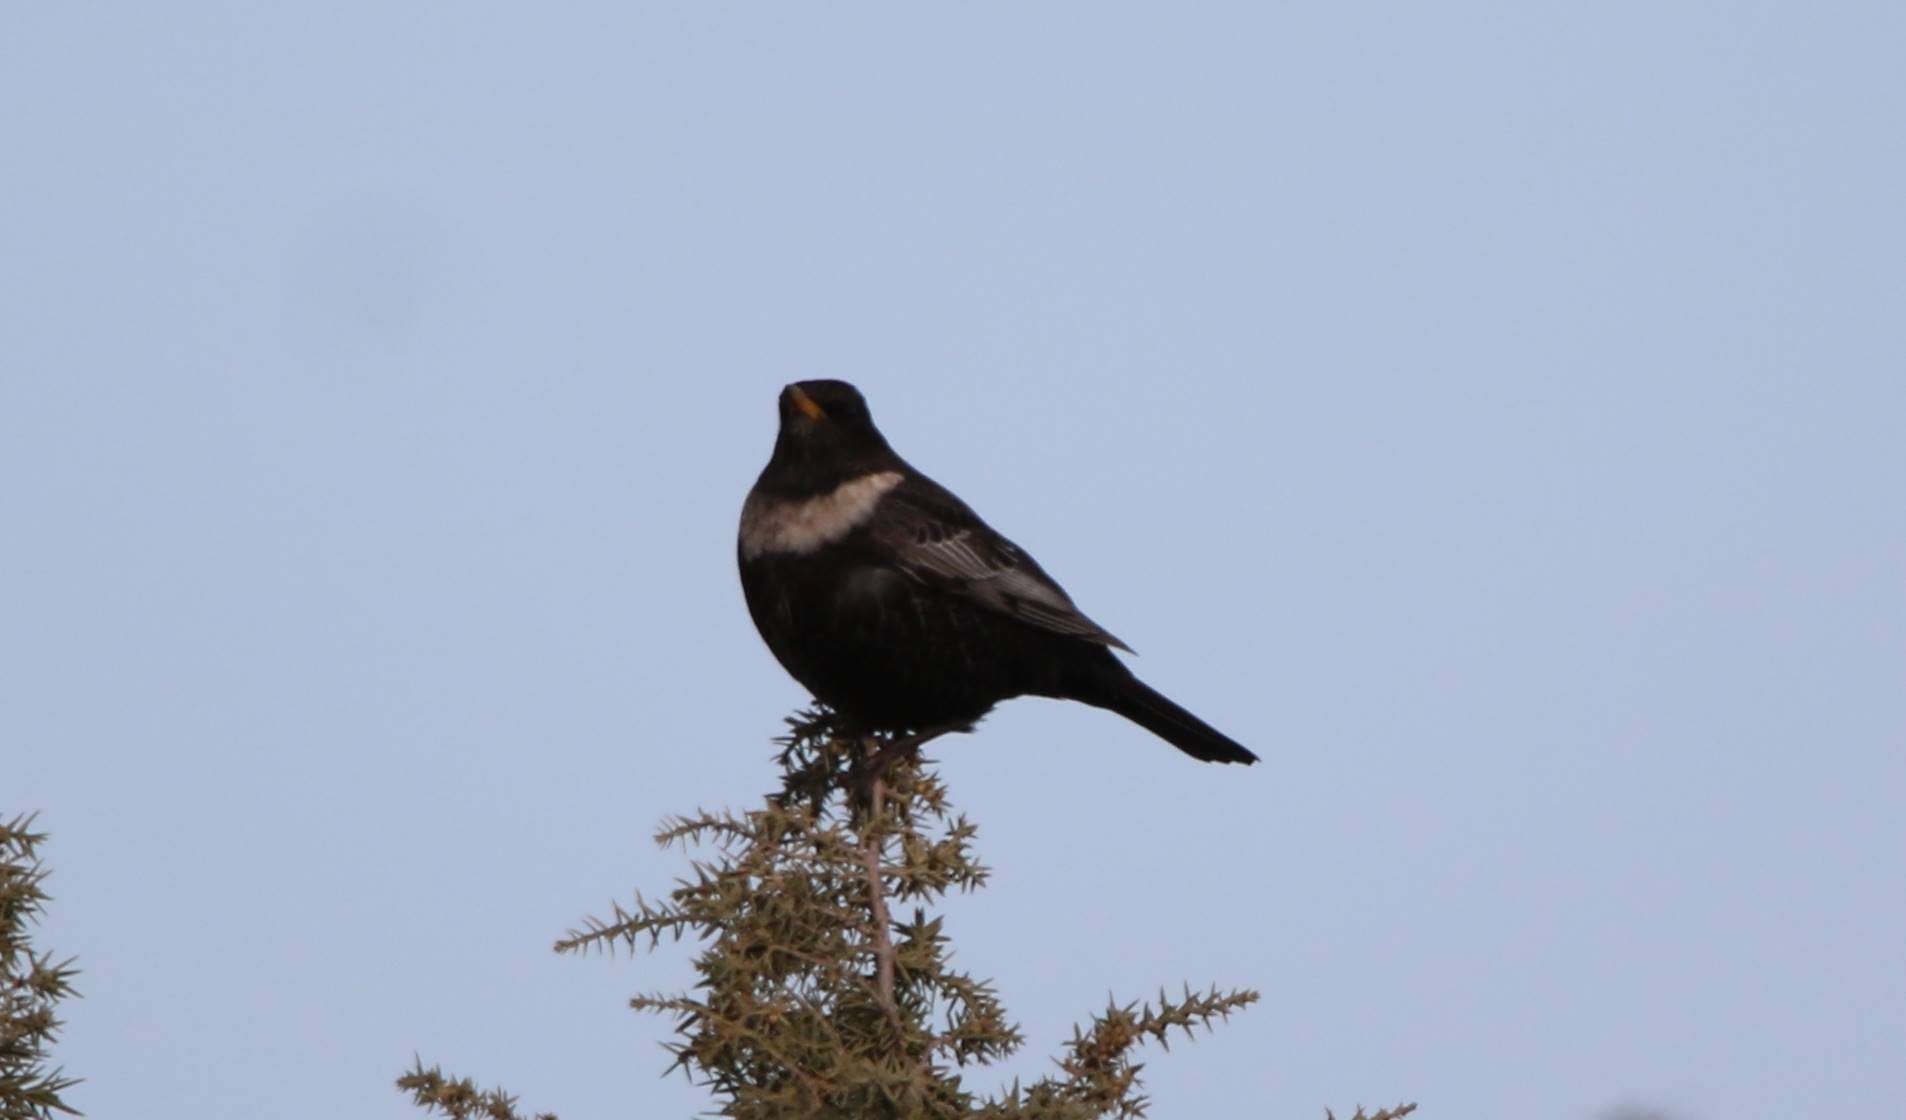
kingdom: Animalia
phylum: Chordata
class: Aves
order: Passeriformes
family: Turdidae
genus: Turdus
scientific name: Turdus torquatus
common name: Ring ouzel
